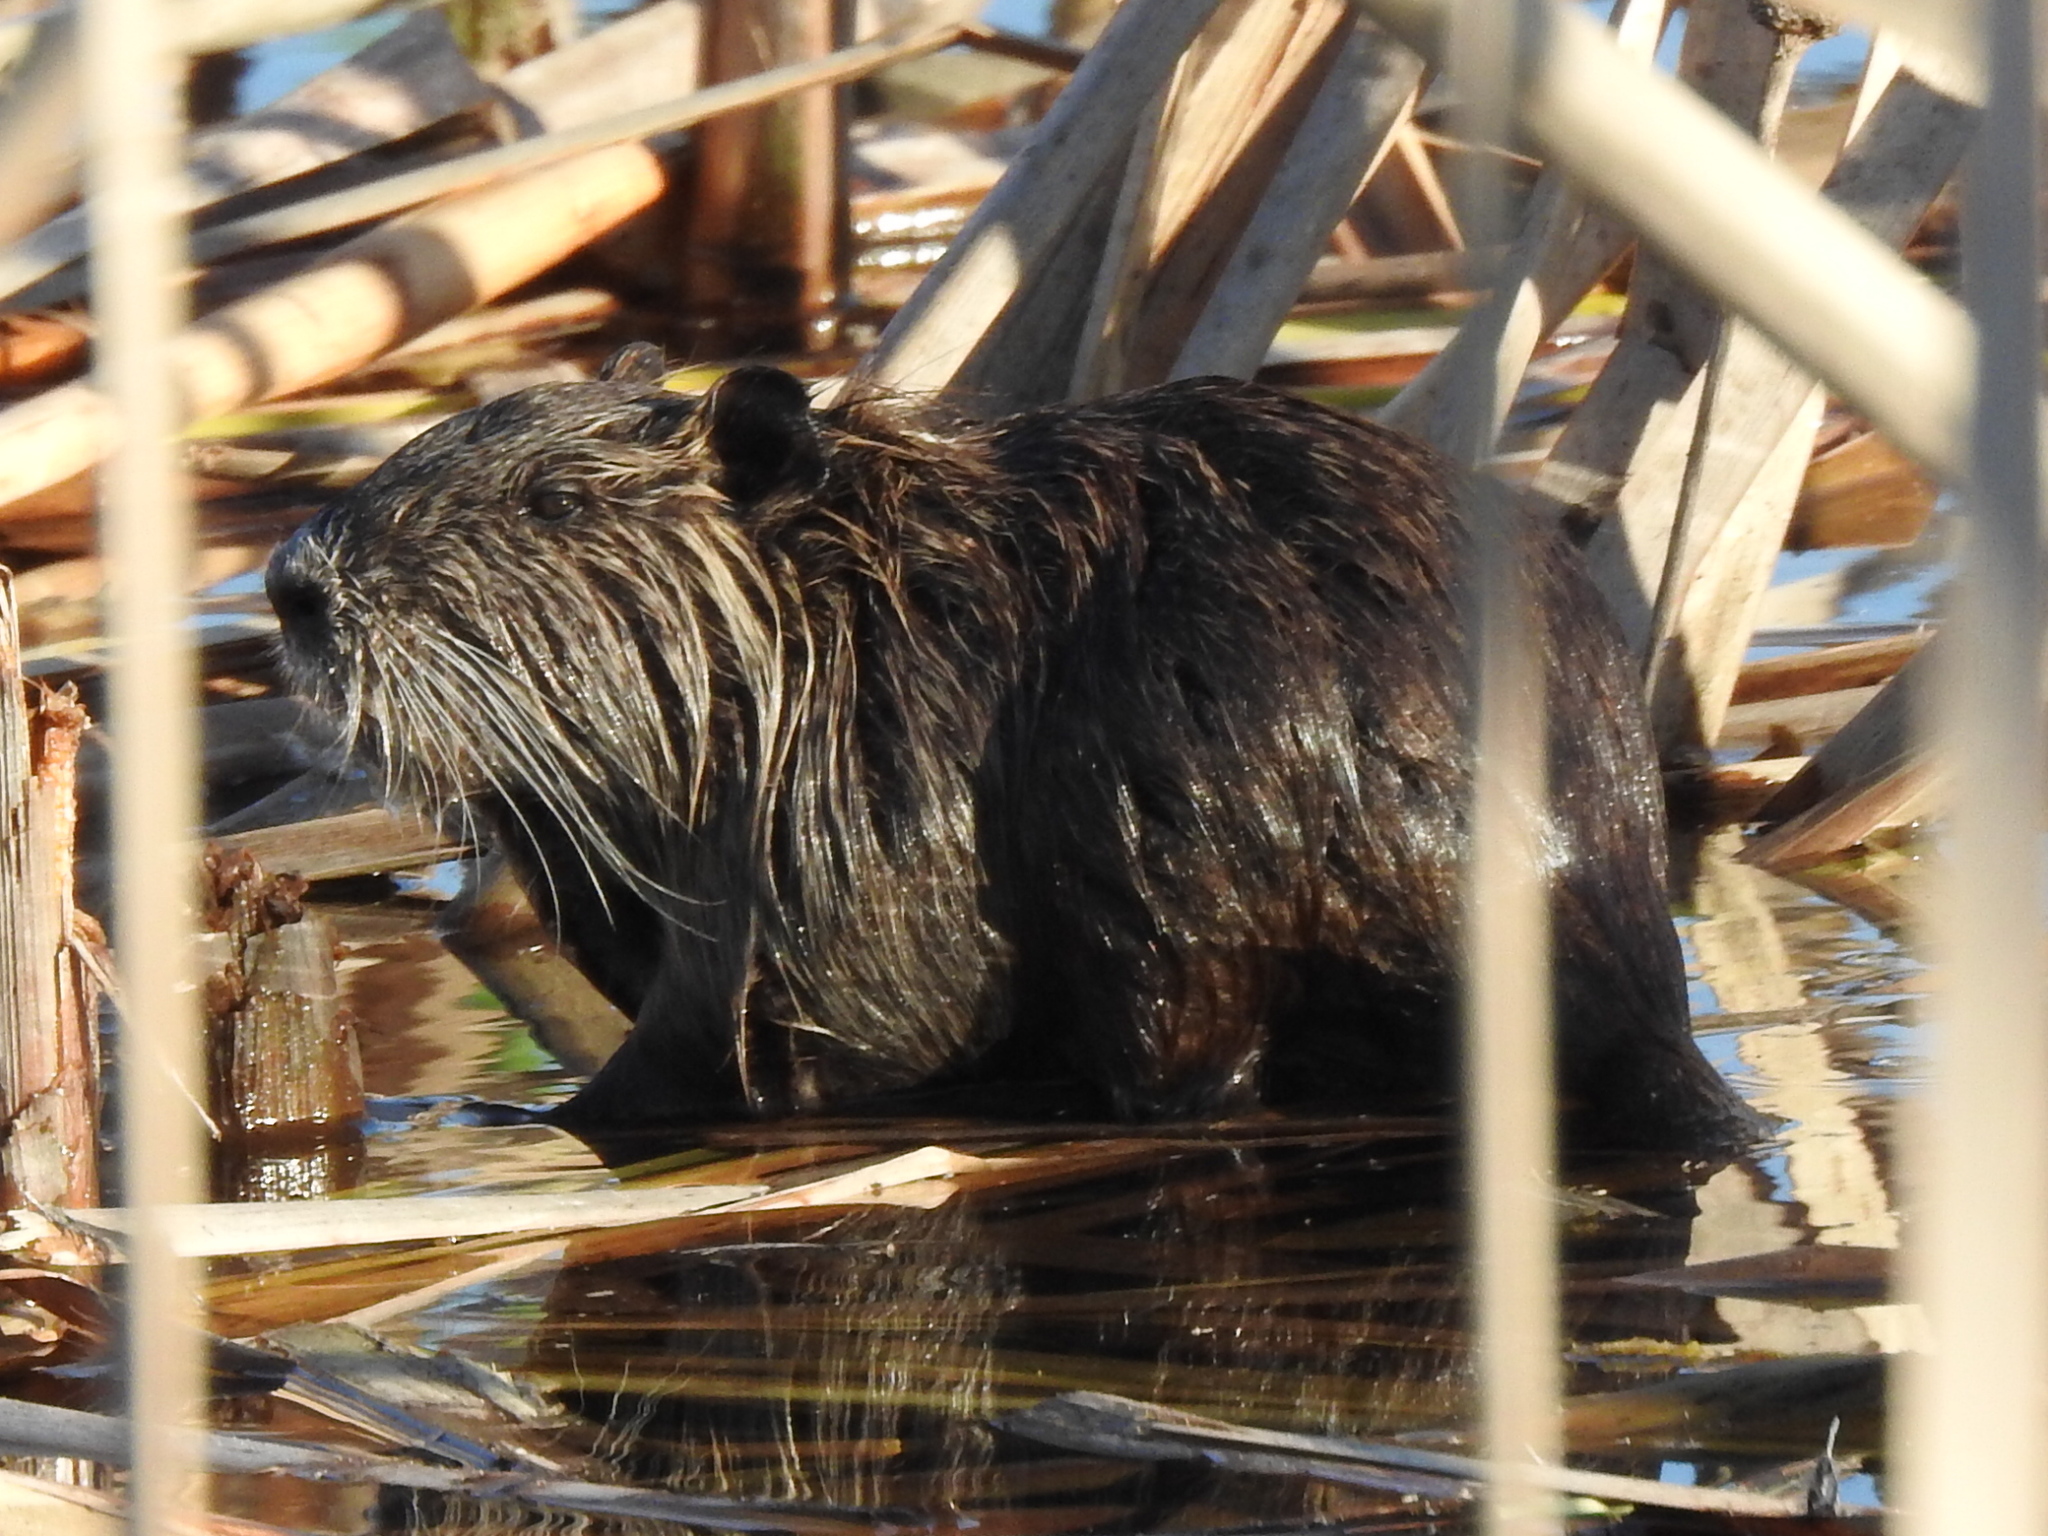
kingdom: Animalia
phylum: Chordata
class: Mammalia
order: Rodentia
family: Myocastoridae
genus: Myocastor
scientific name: Myocastor coypus
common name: Coypu
